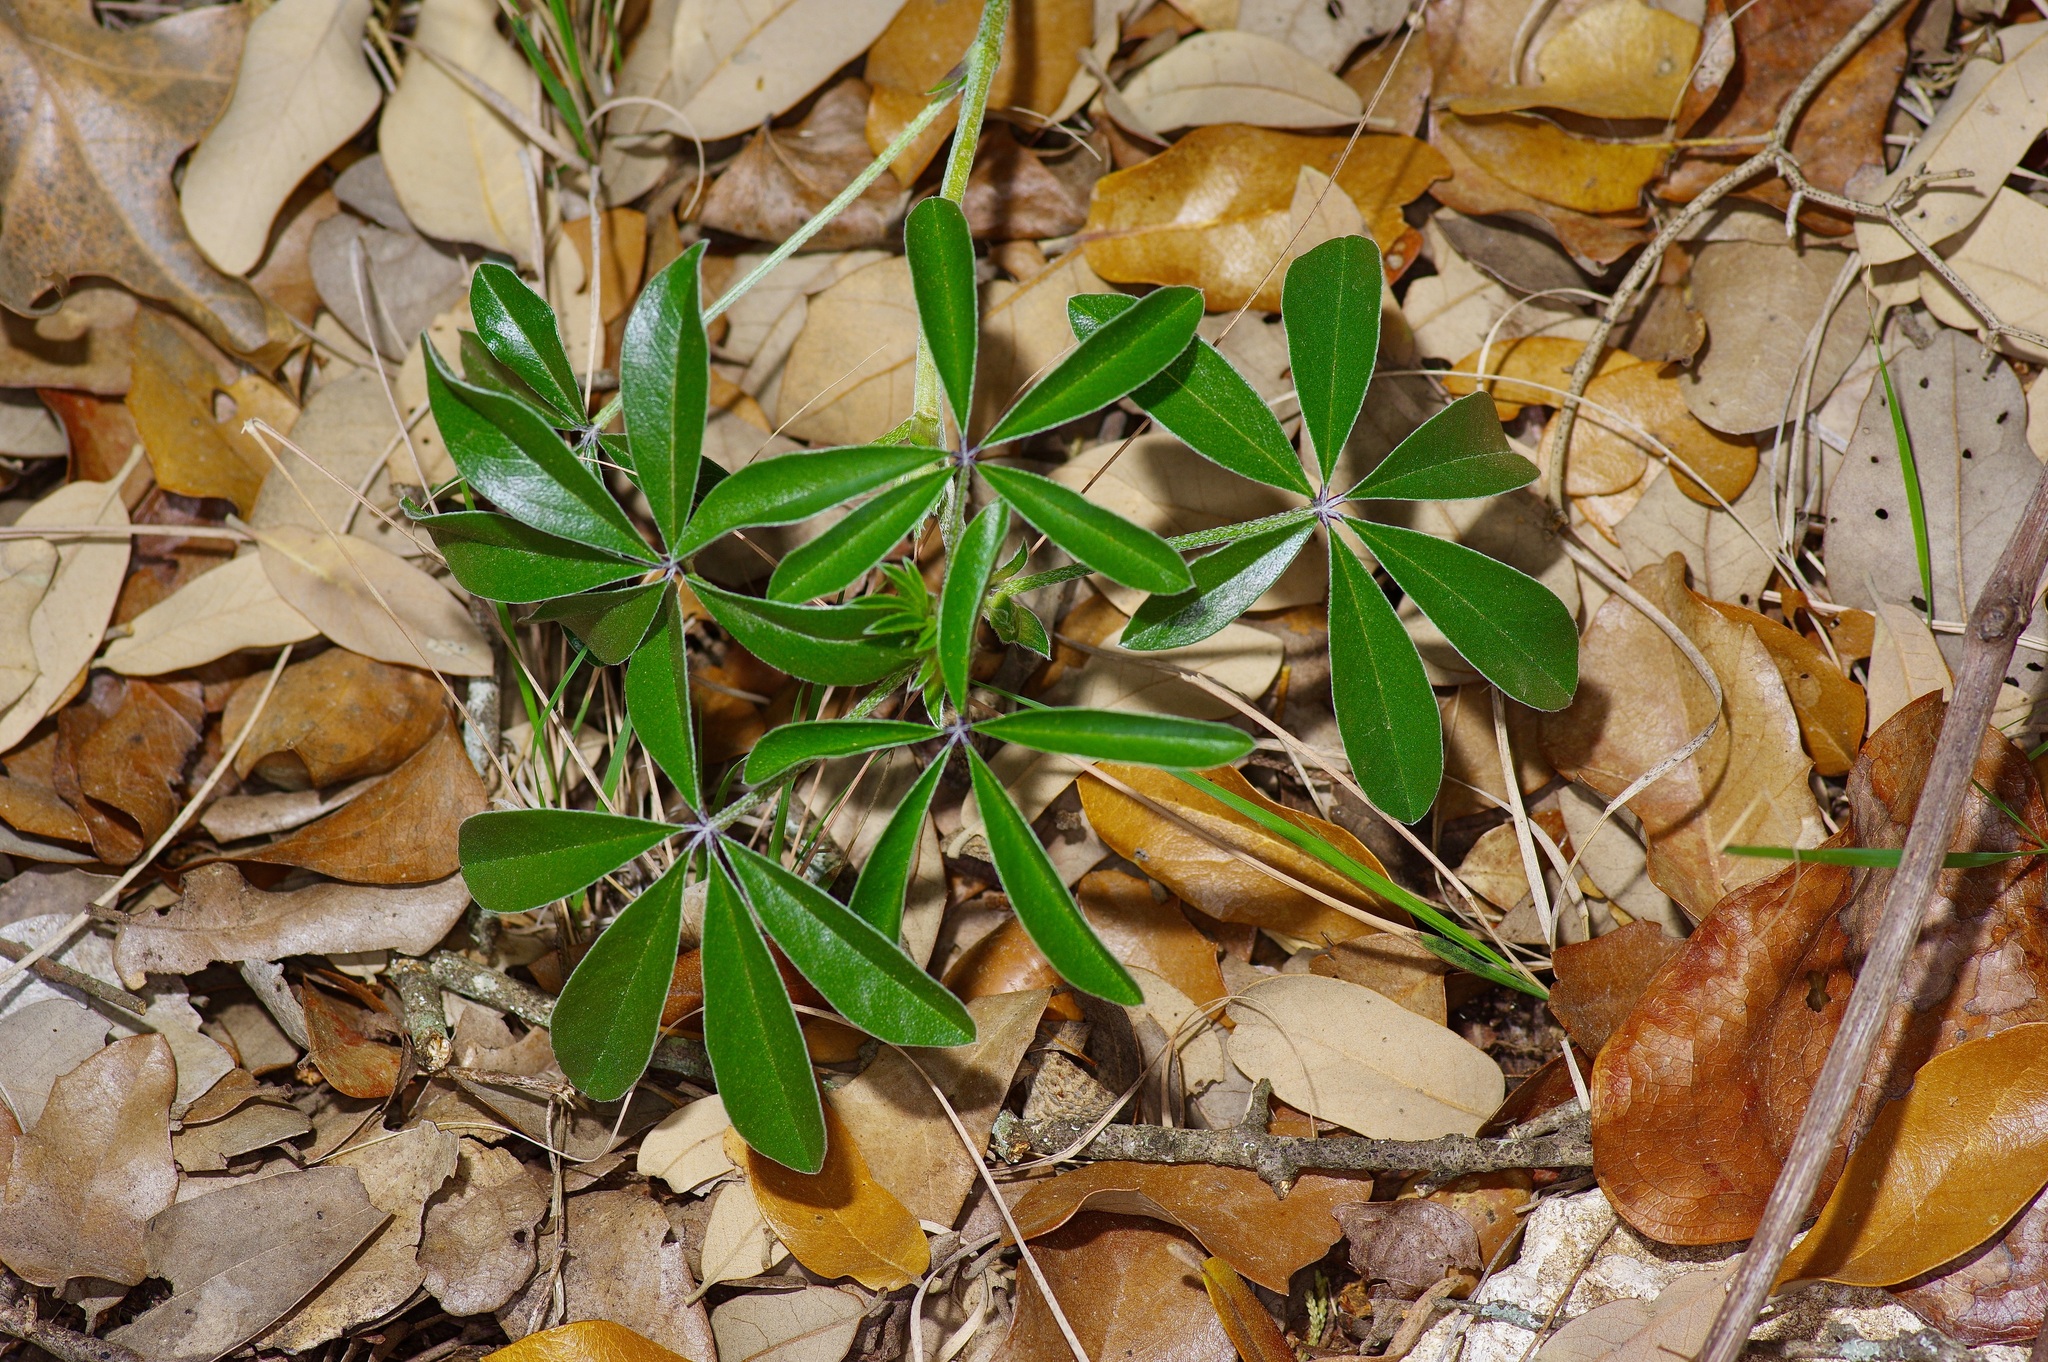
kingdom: Plantae
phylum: Tracheophyta
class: Magnoliopsida
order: Fabales
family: Fabaceae
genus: Pediomelum
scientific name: Pediomelum latestipulatum
